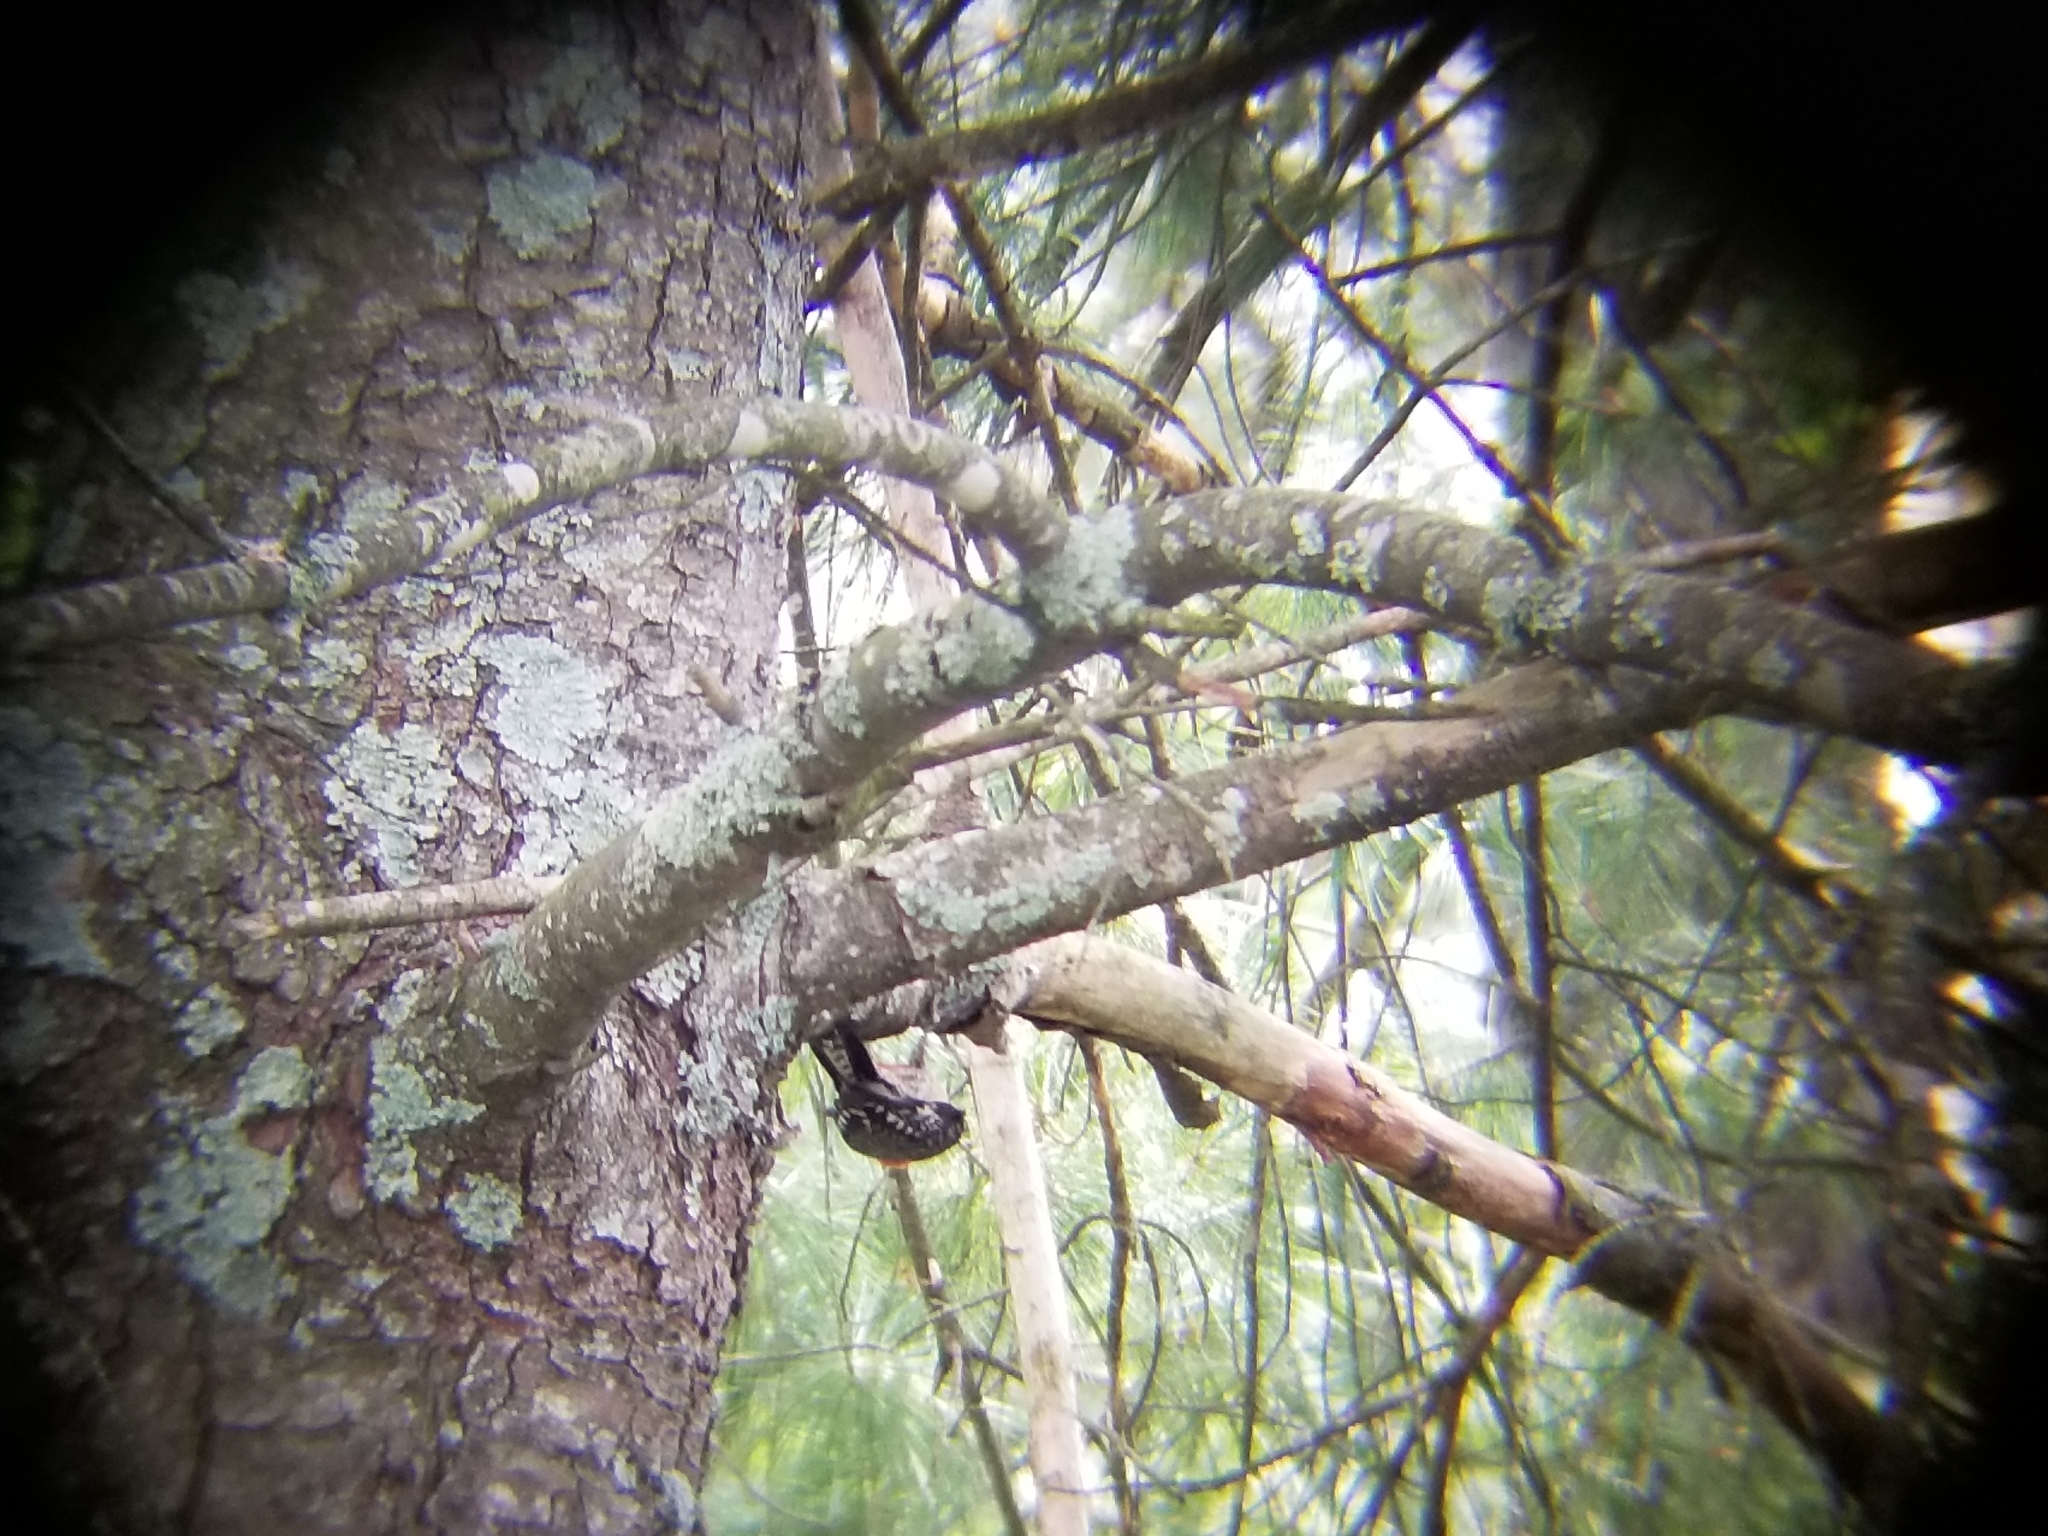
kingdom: Animalia
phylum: Chordata
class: Aves
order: Piciformes
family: Picidae
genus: Melanerpes
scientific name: Melanerpes carolinus
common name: Red-bellied woodpecker
